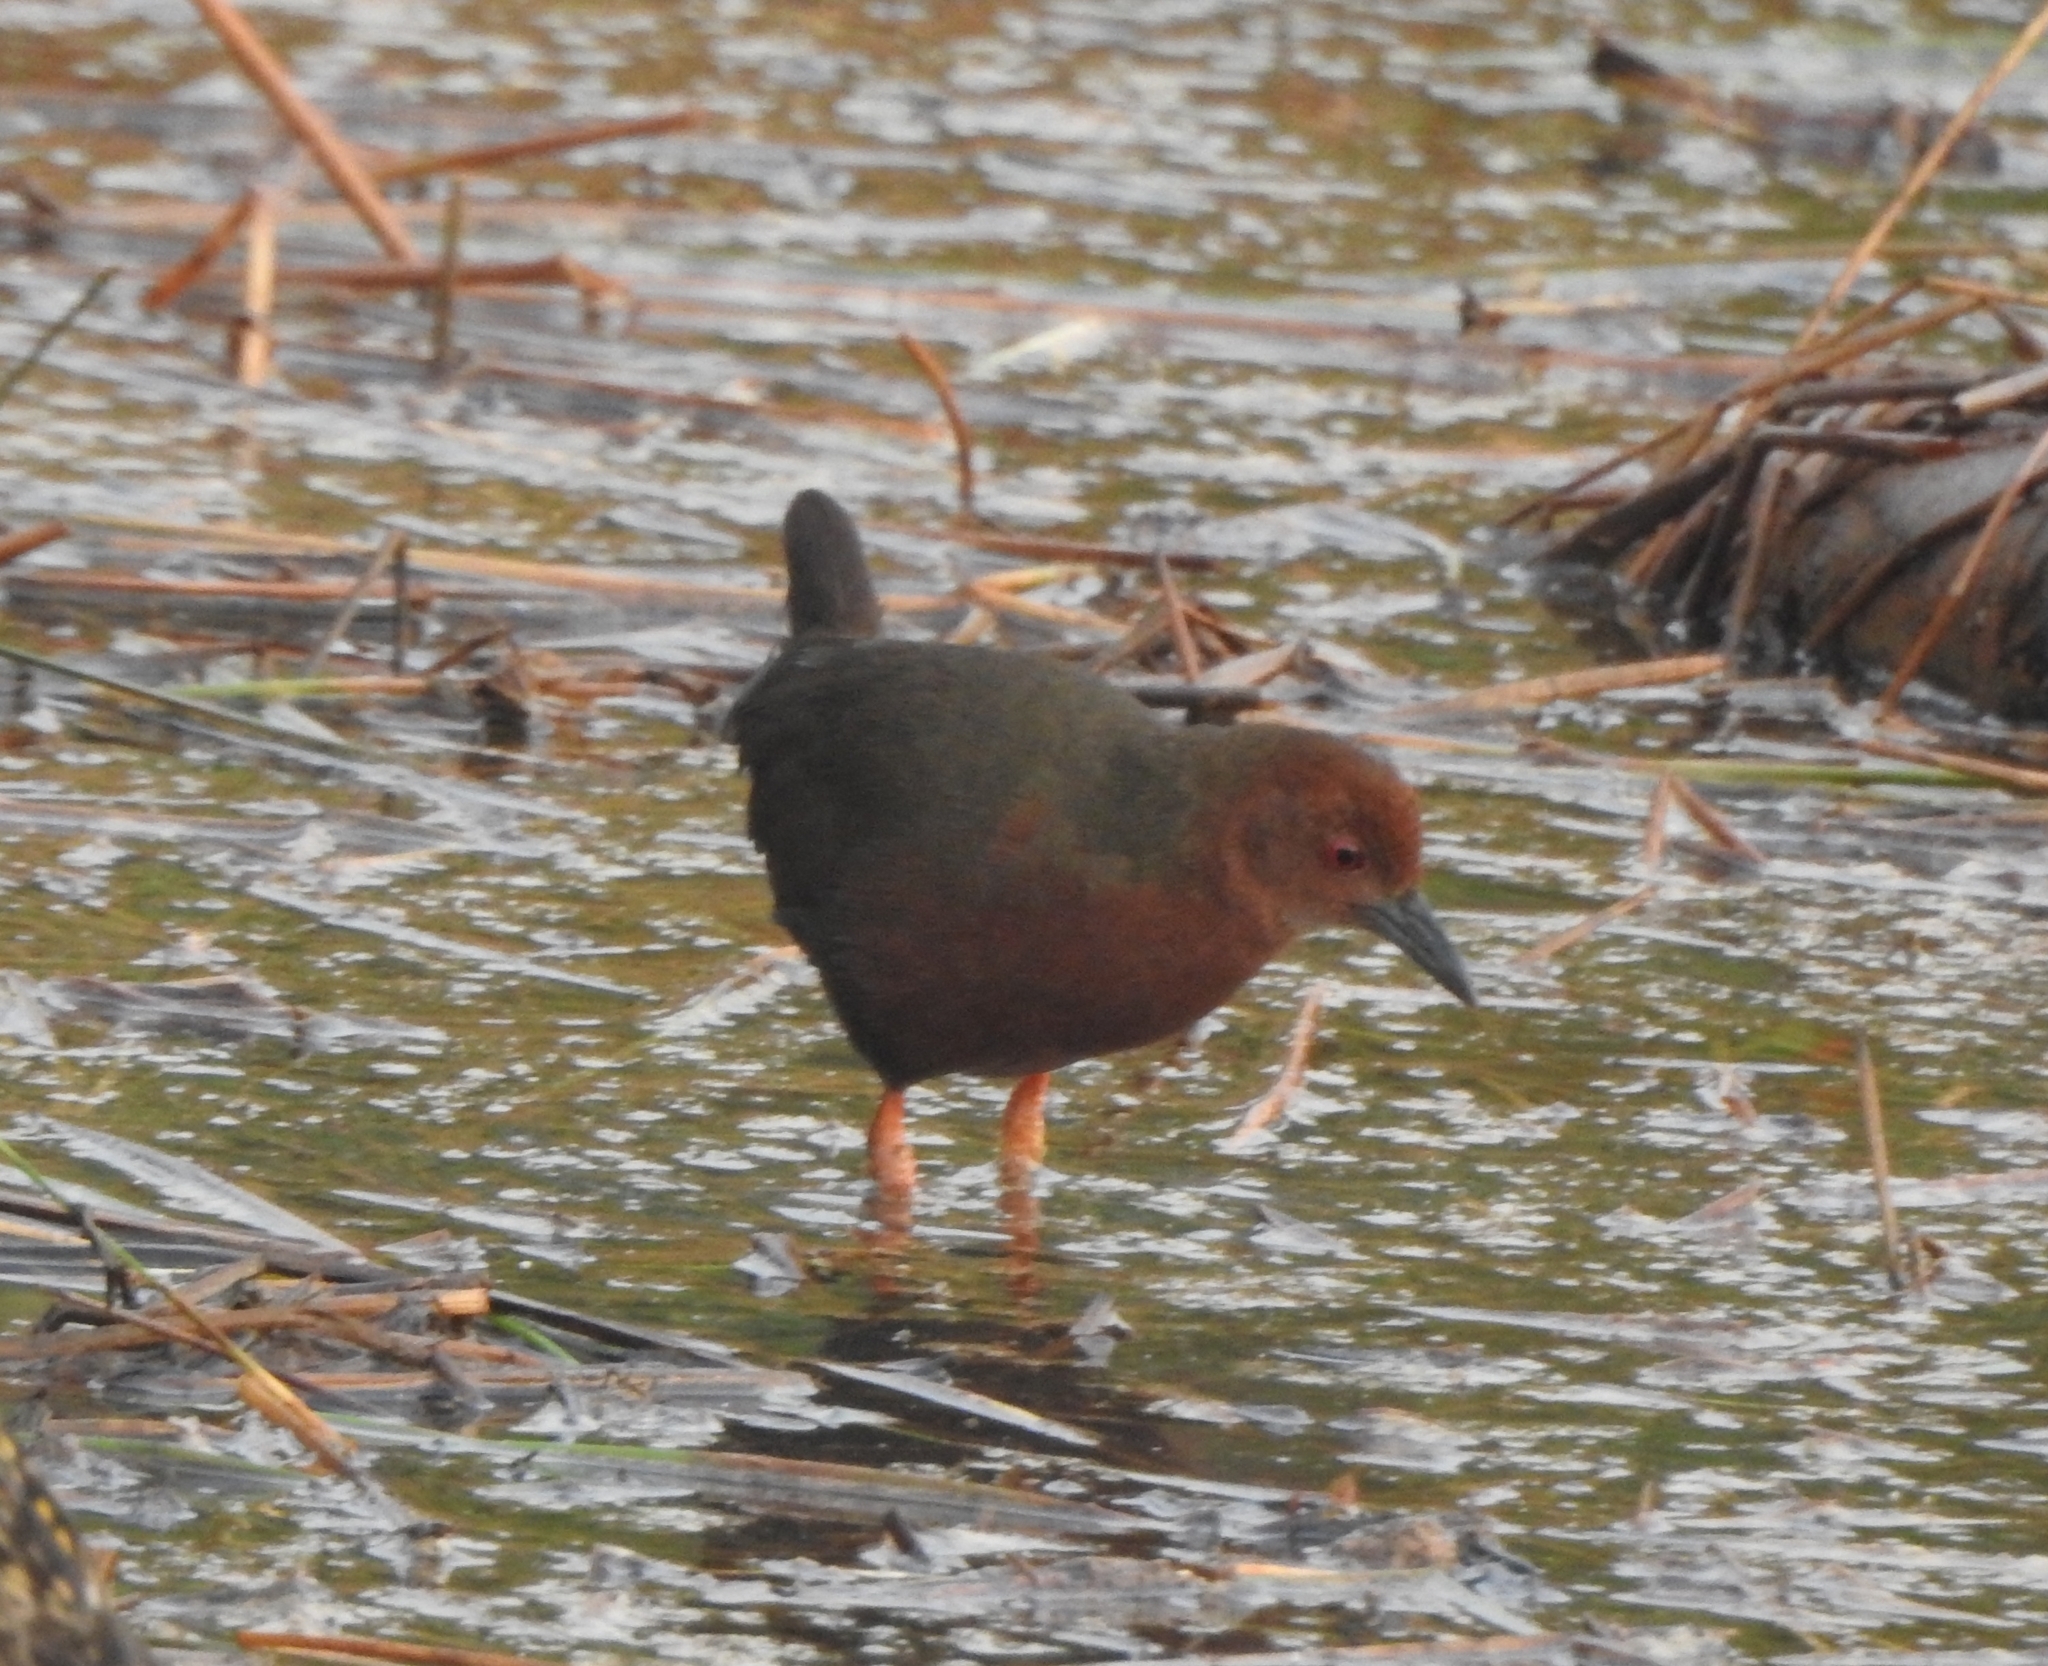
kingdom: Animalia
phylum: Chordata
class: Aves
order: Gruiformes
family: Rallidae
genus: Porzana
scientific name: Porzana fusca
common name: Ruddy-breasted crake
